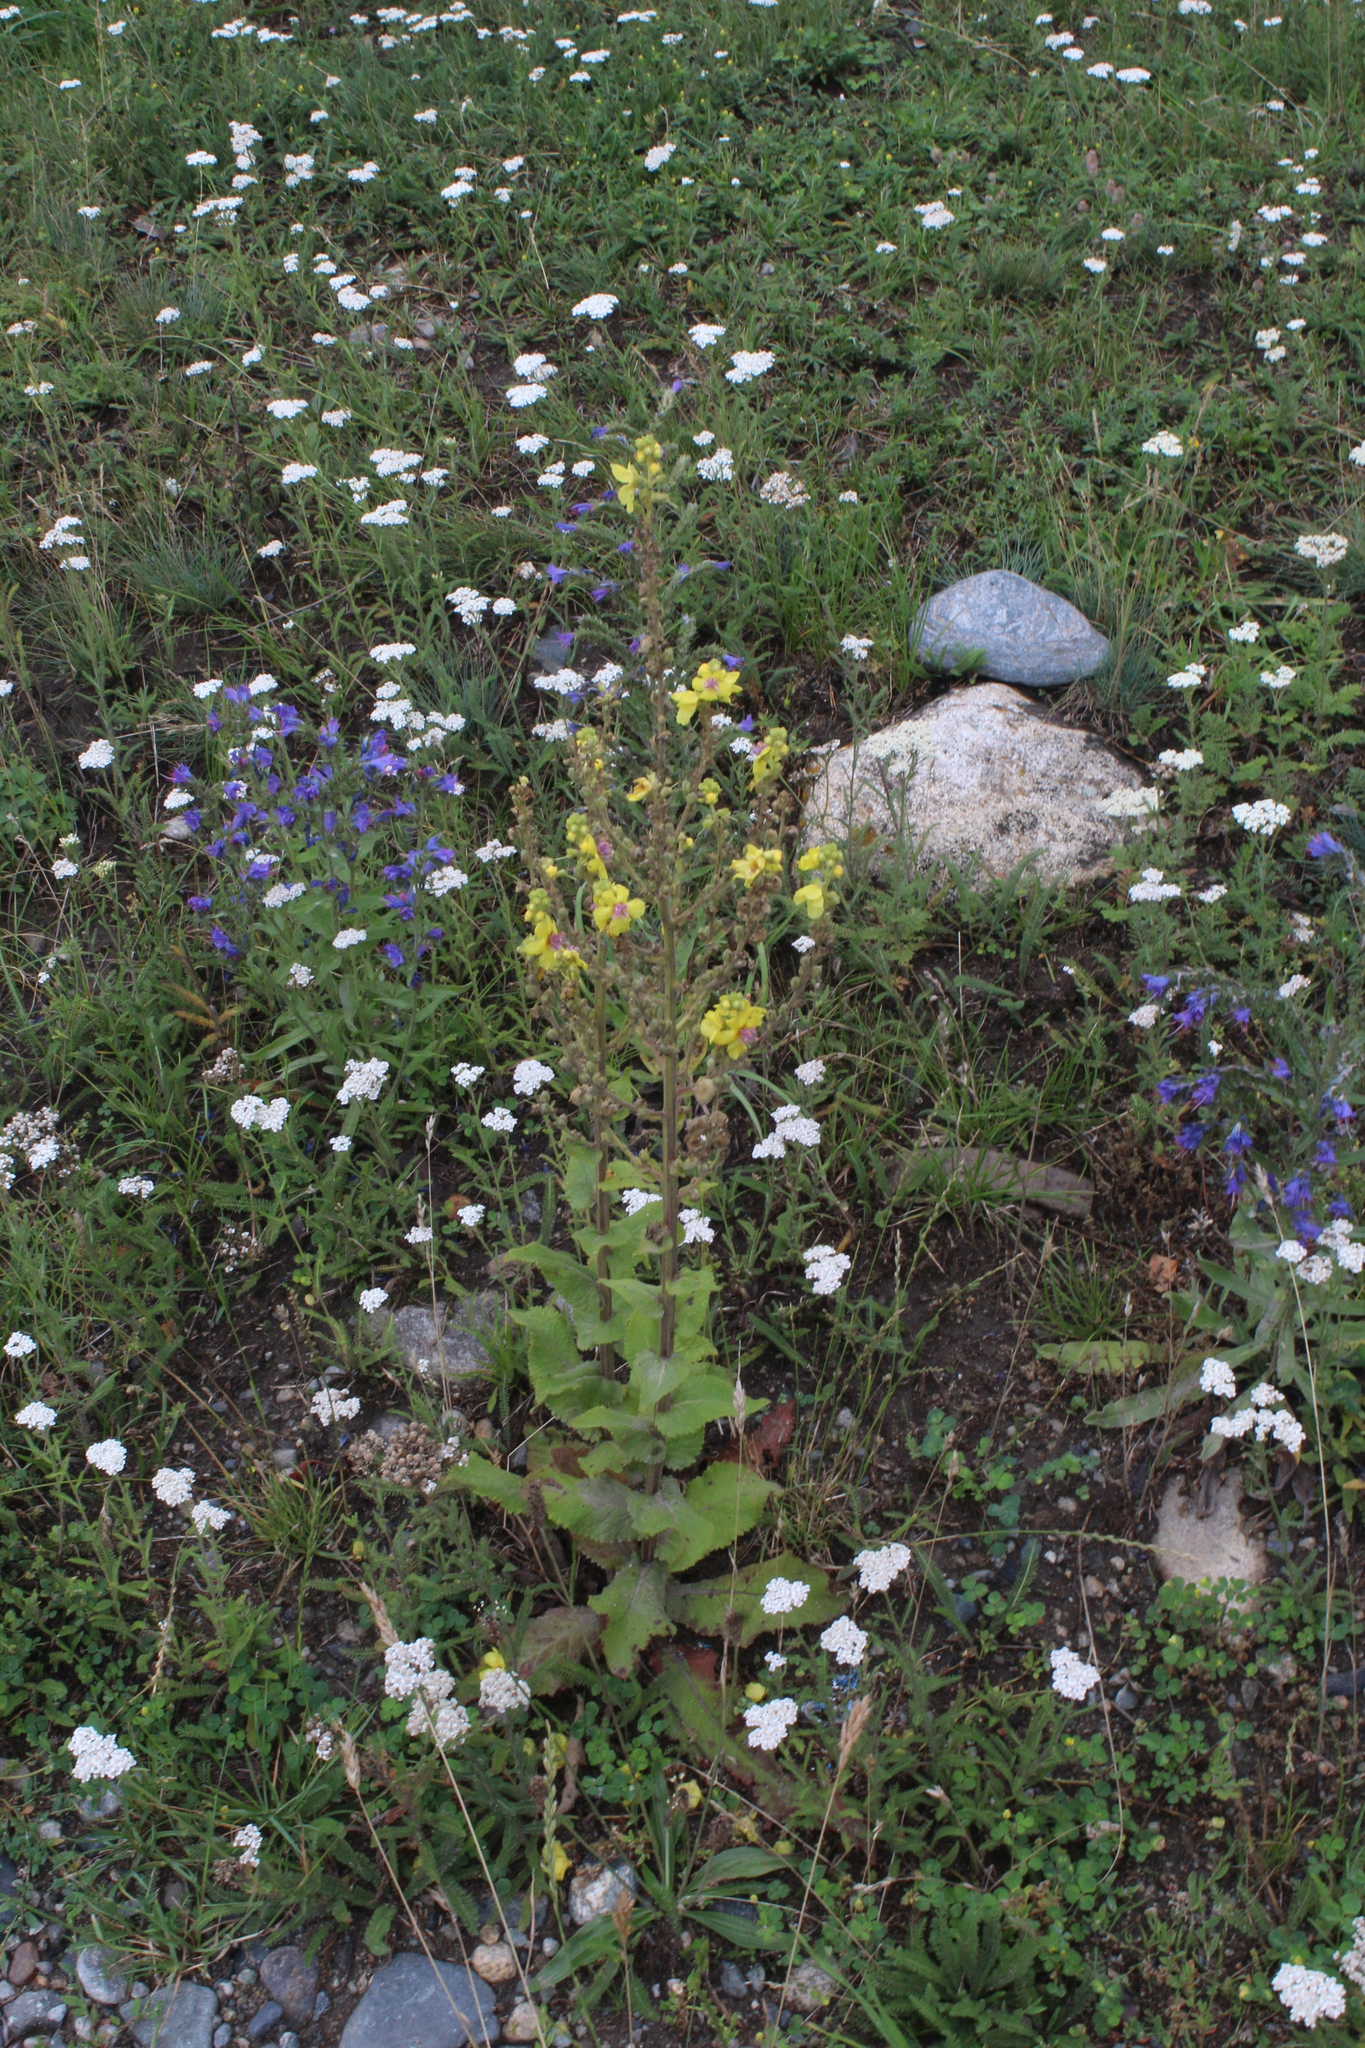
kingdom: Plantae
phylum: Tracheophyta
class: Magnoliopsida
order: Lamiales
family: Scrophulariaceae
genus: Verbascum
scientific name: Verbascum pyramidatum
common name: Caucasian mullein
